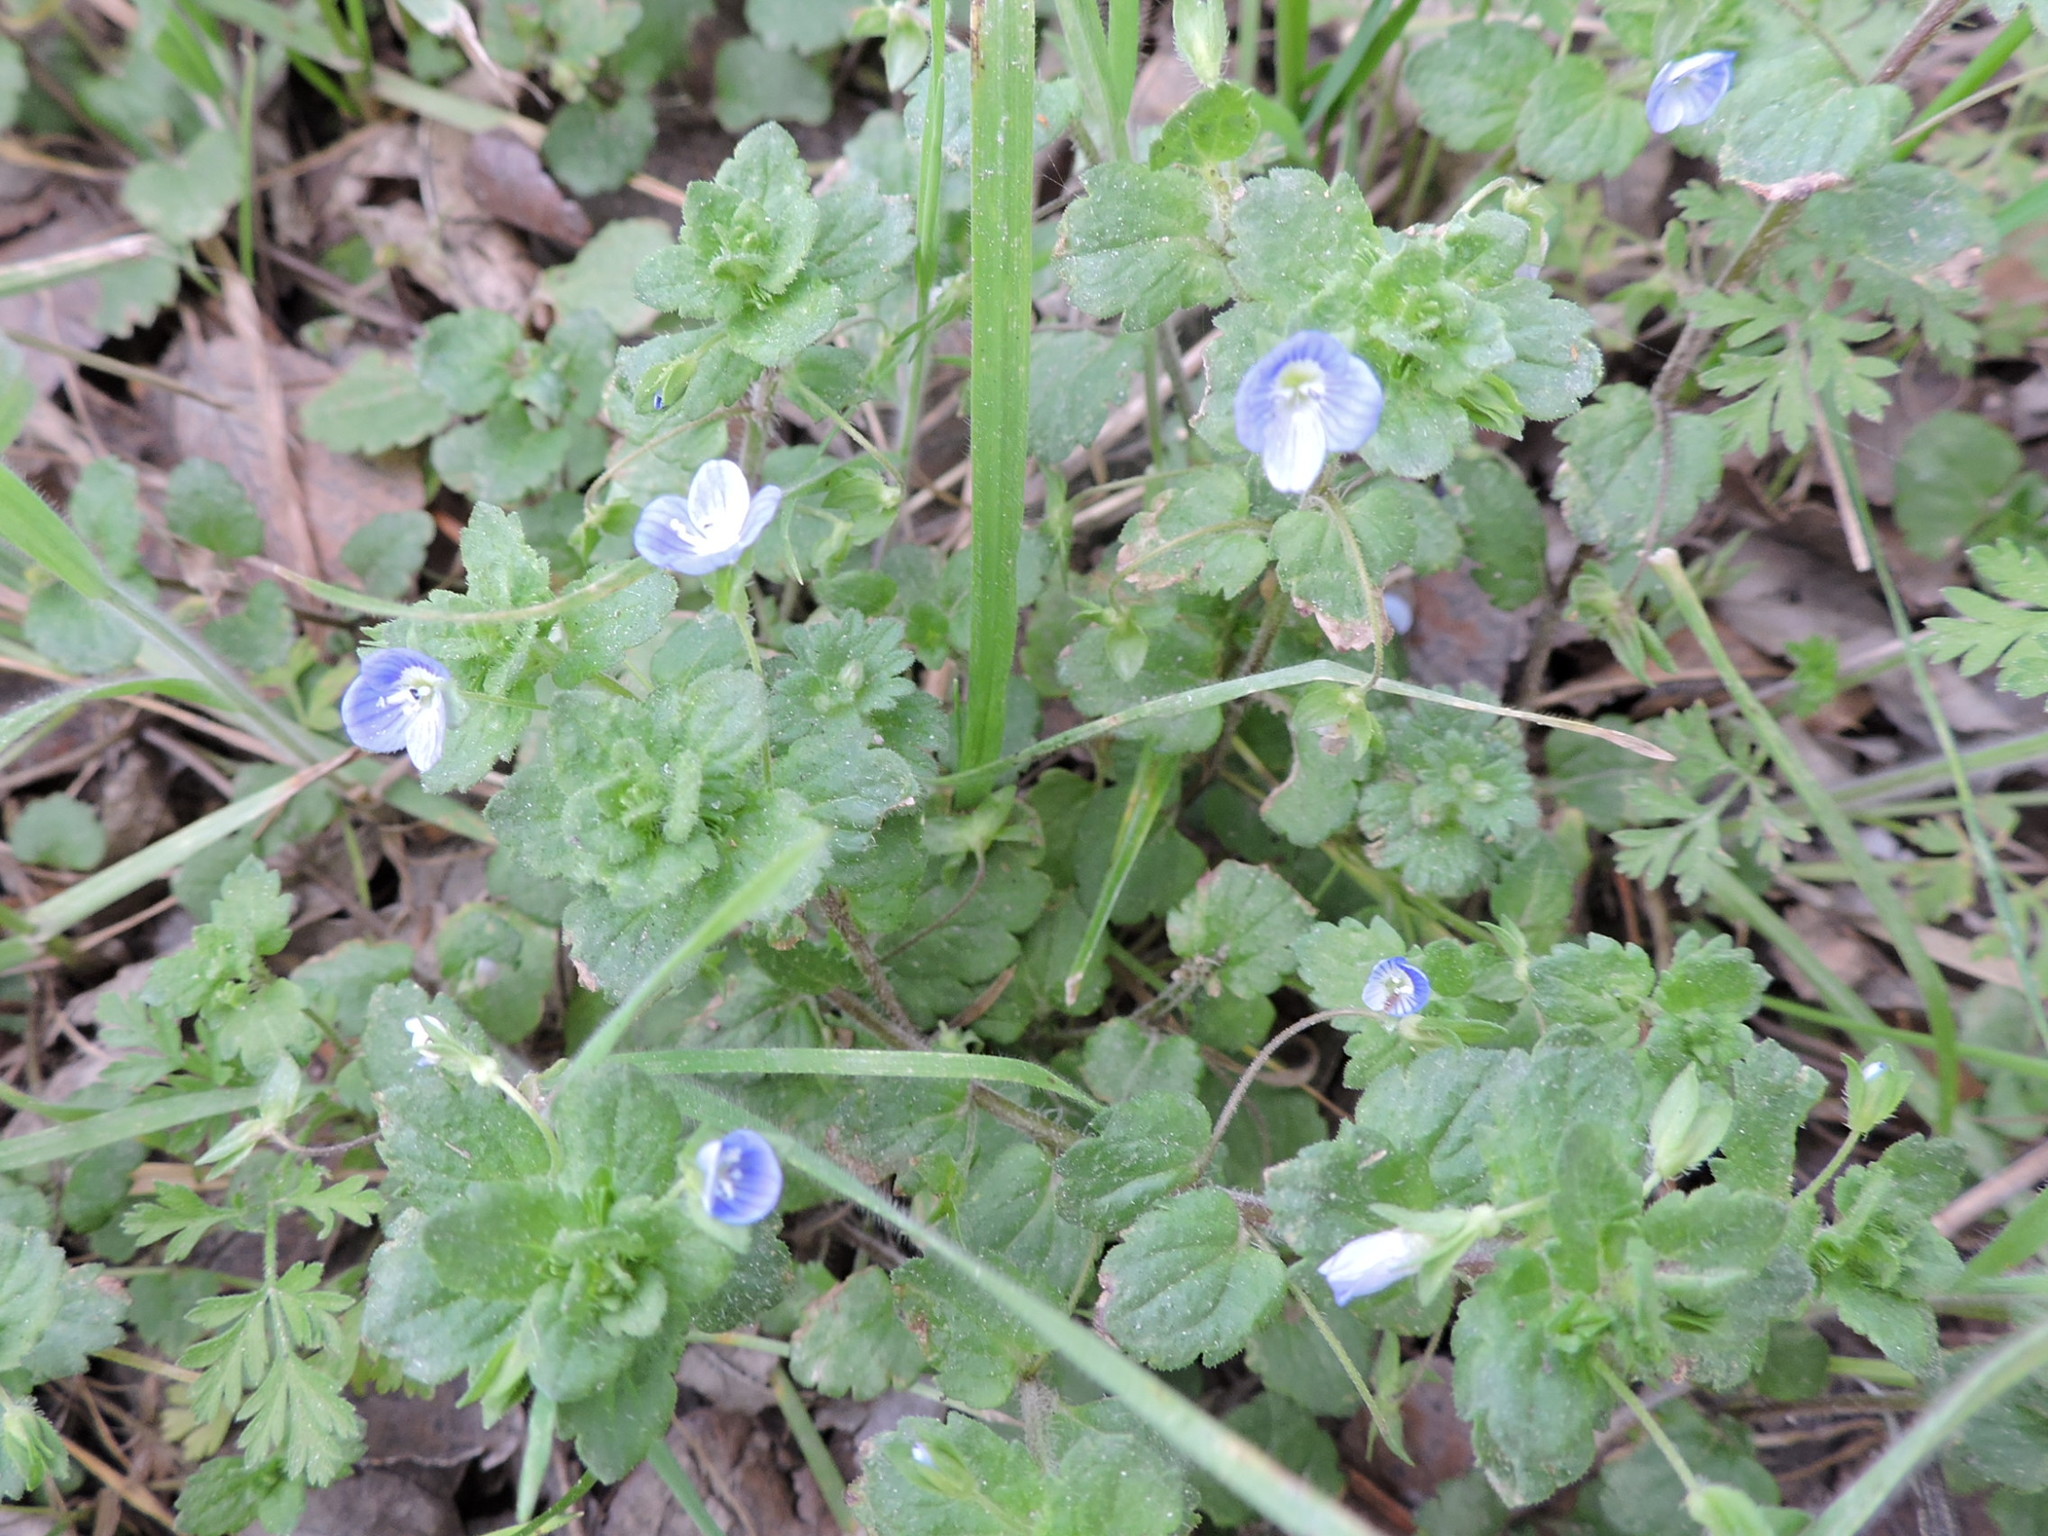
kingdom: Plantae
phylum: Tracheophyta
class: Magnoliopsida
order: Lamiales
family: Plantaginaceae
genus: Veronica
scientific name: Veronica persica
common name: Common field-speedwell
